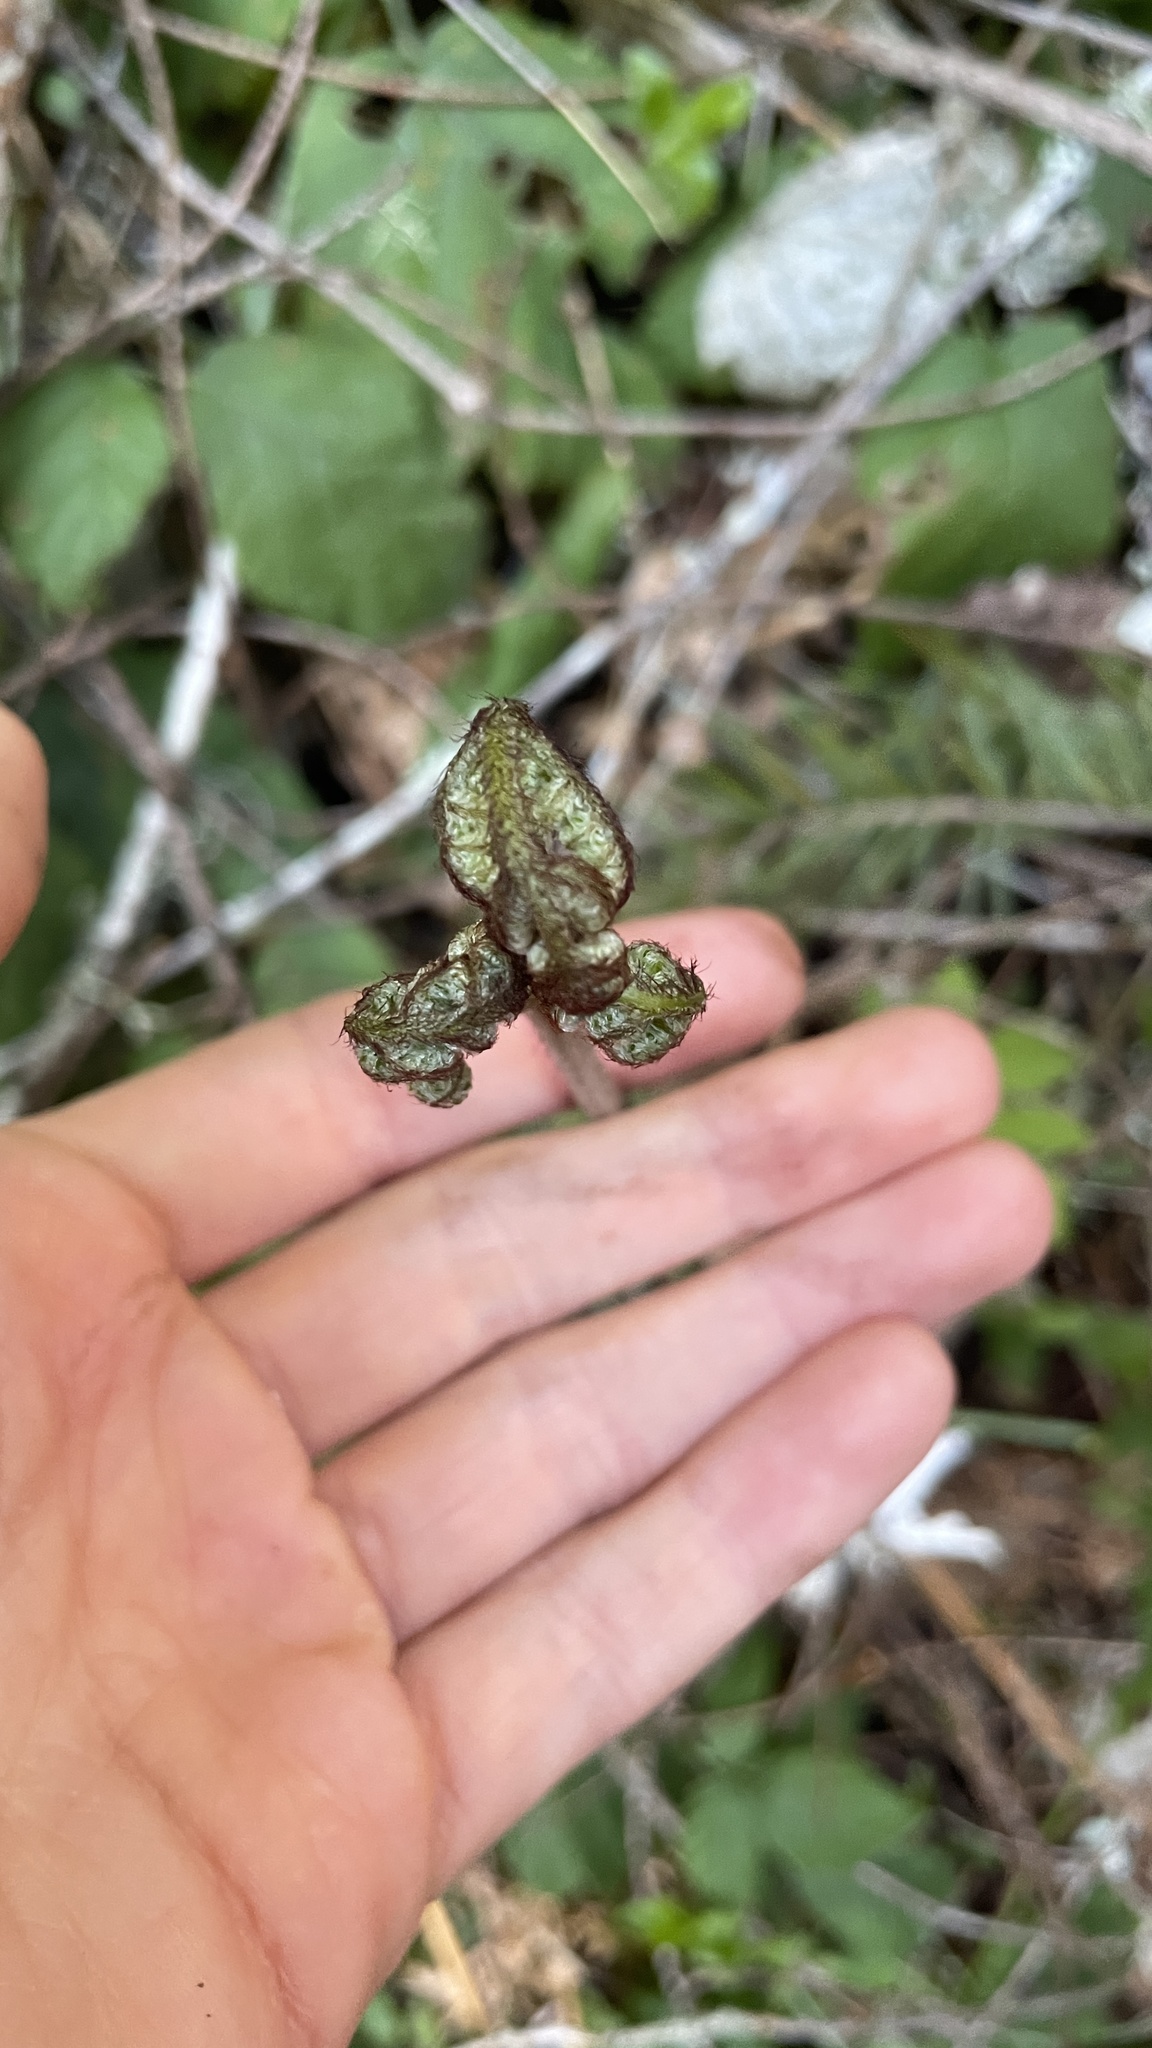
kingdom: Plantae
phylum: Tracheophyta
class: Polypodiopsida
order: Polypodiales
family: Dennstaedtiaceae
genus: Pteridium
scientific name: Pteridium aquilinum
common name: Bracken
